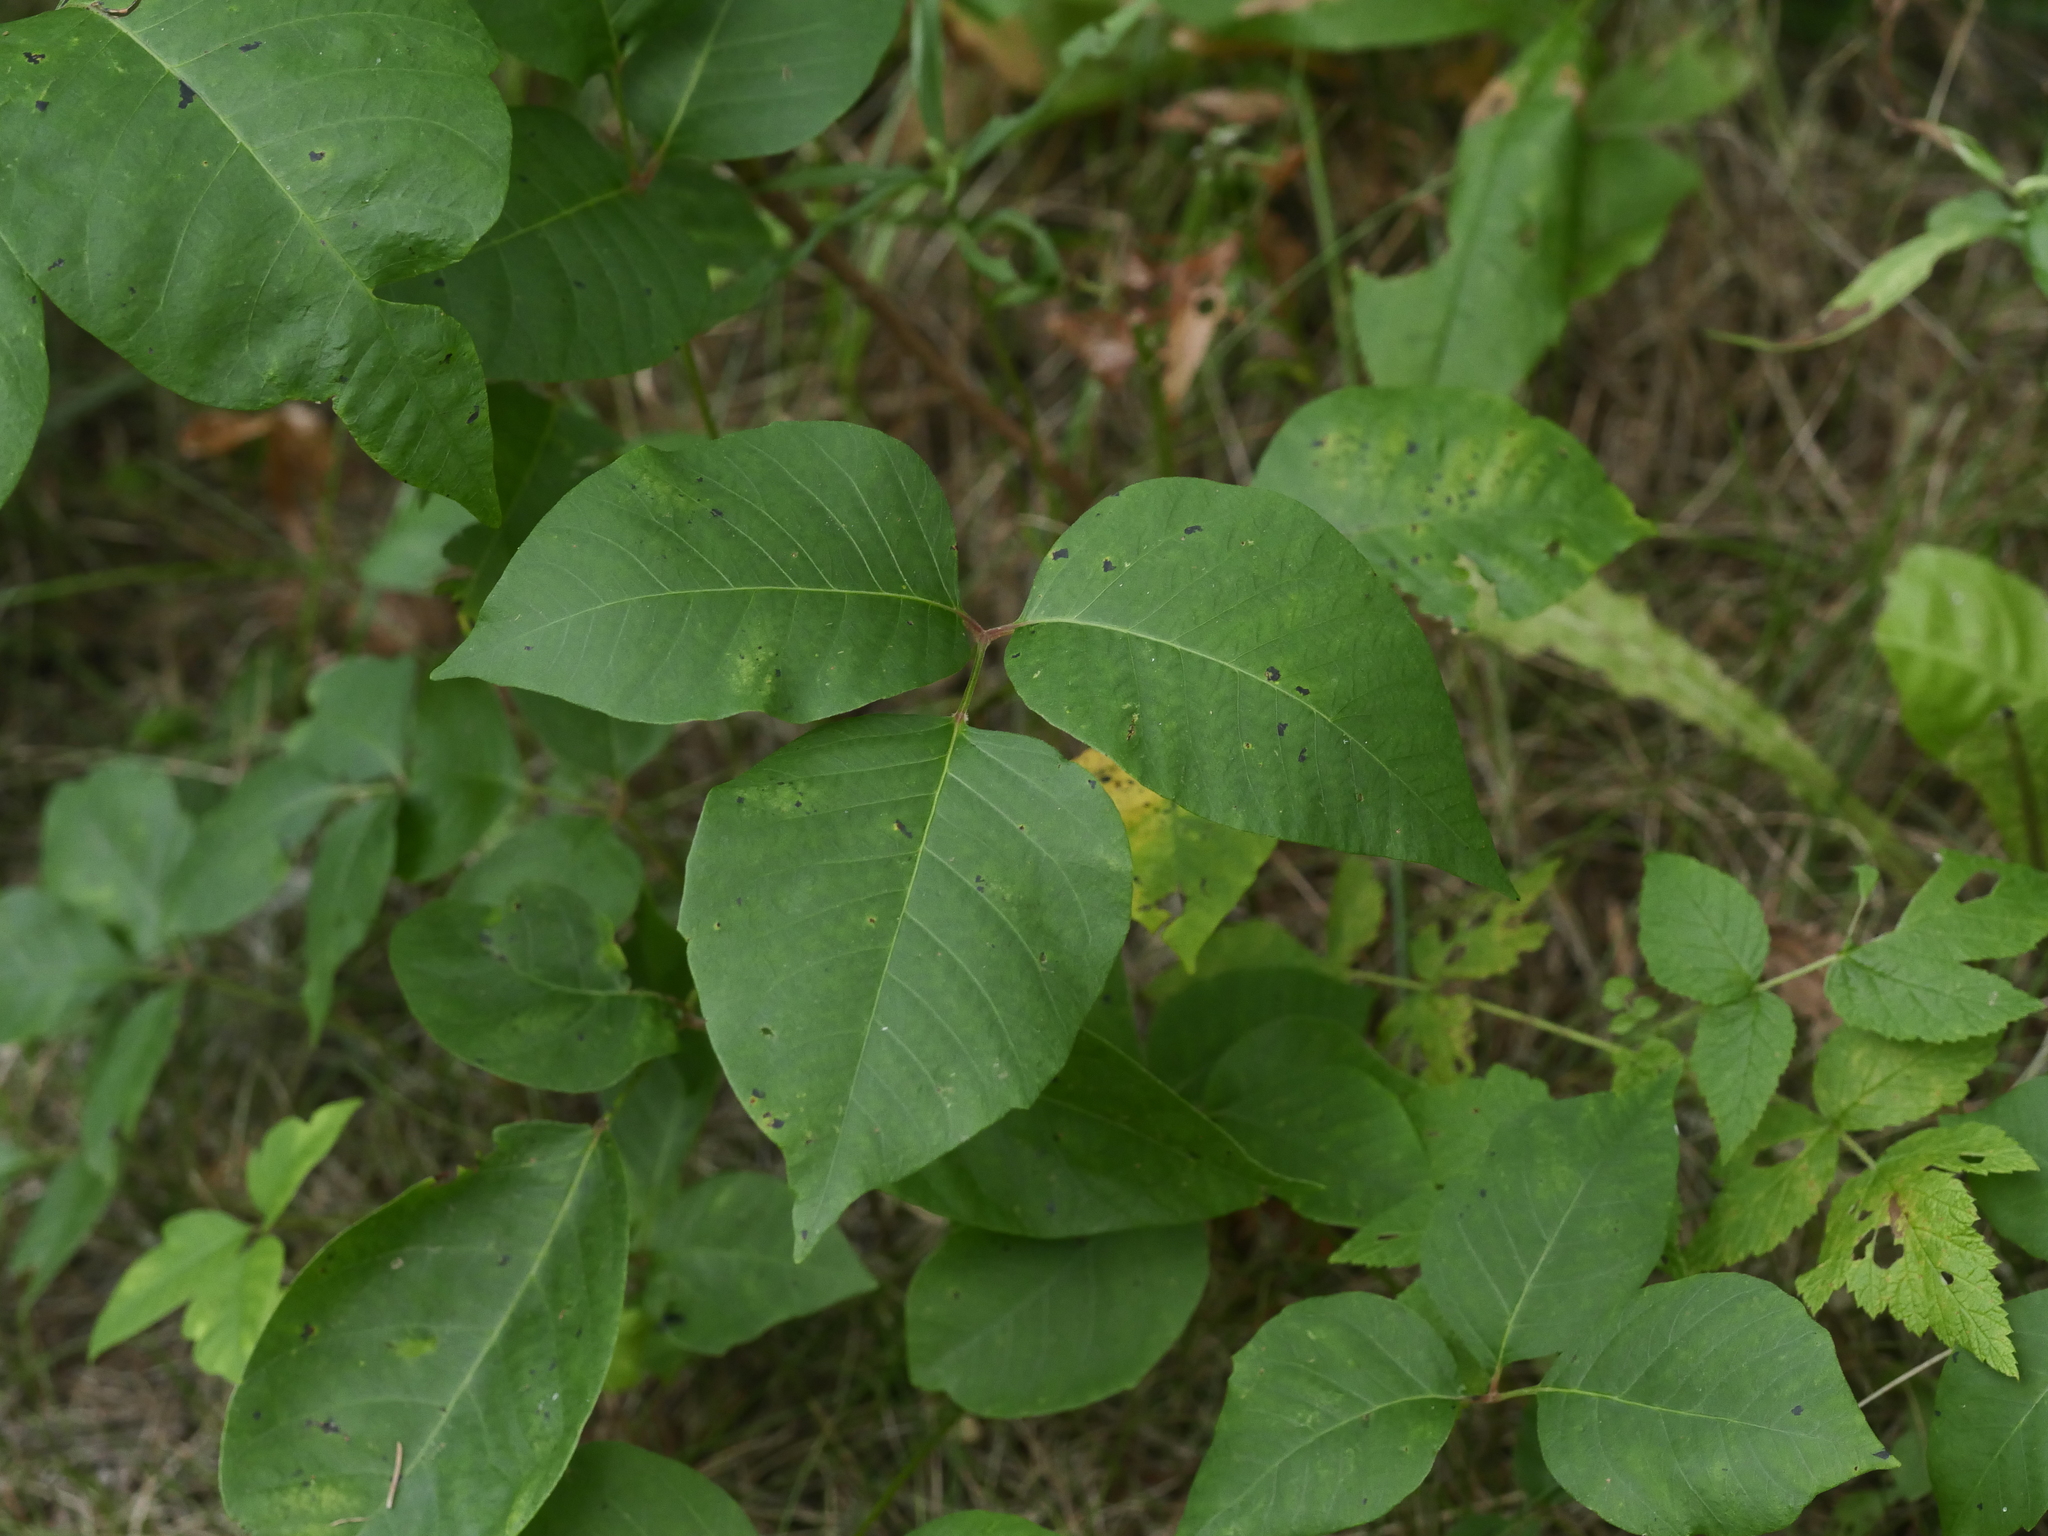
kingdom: Plantae
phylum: Tracheophyta
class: Magnoliopsida
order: Sapindales
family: Anacardiaceae
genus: Toxicodendron
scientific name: Toxicodendron rydbergii
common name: Rydberg's poison-ivy
